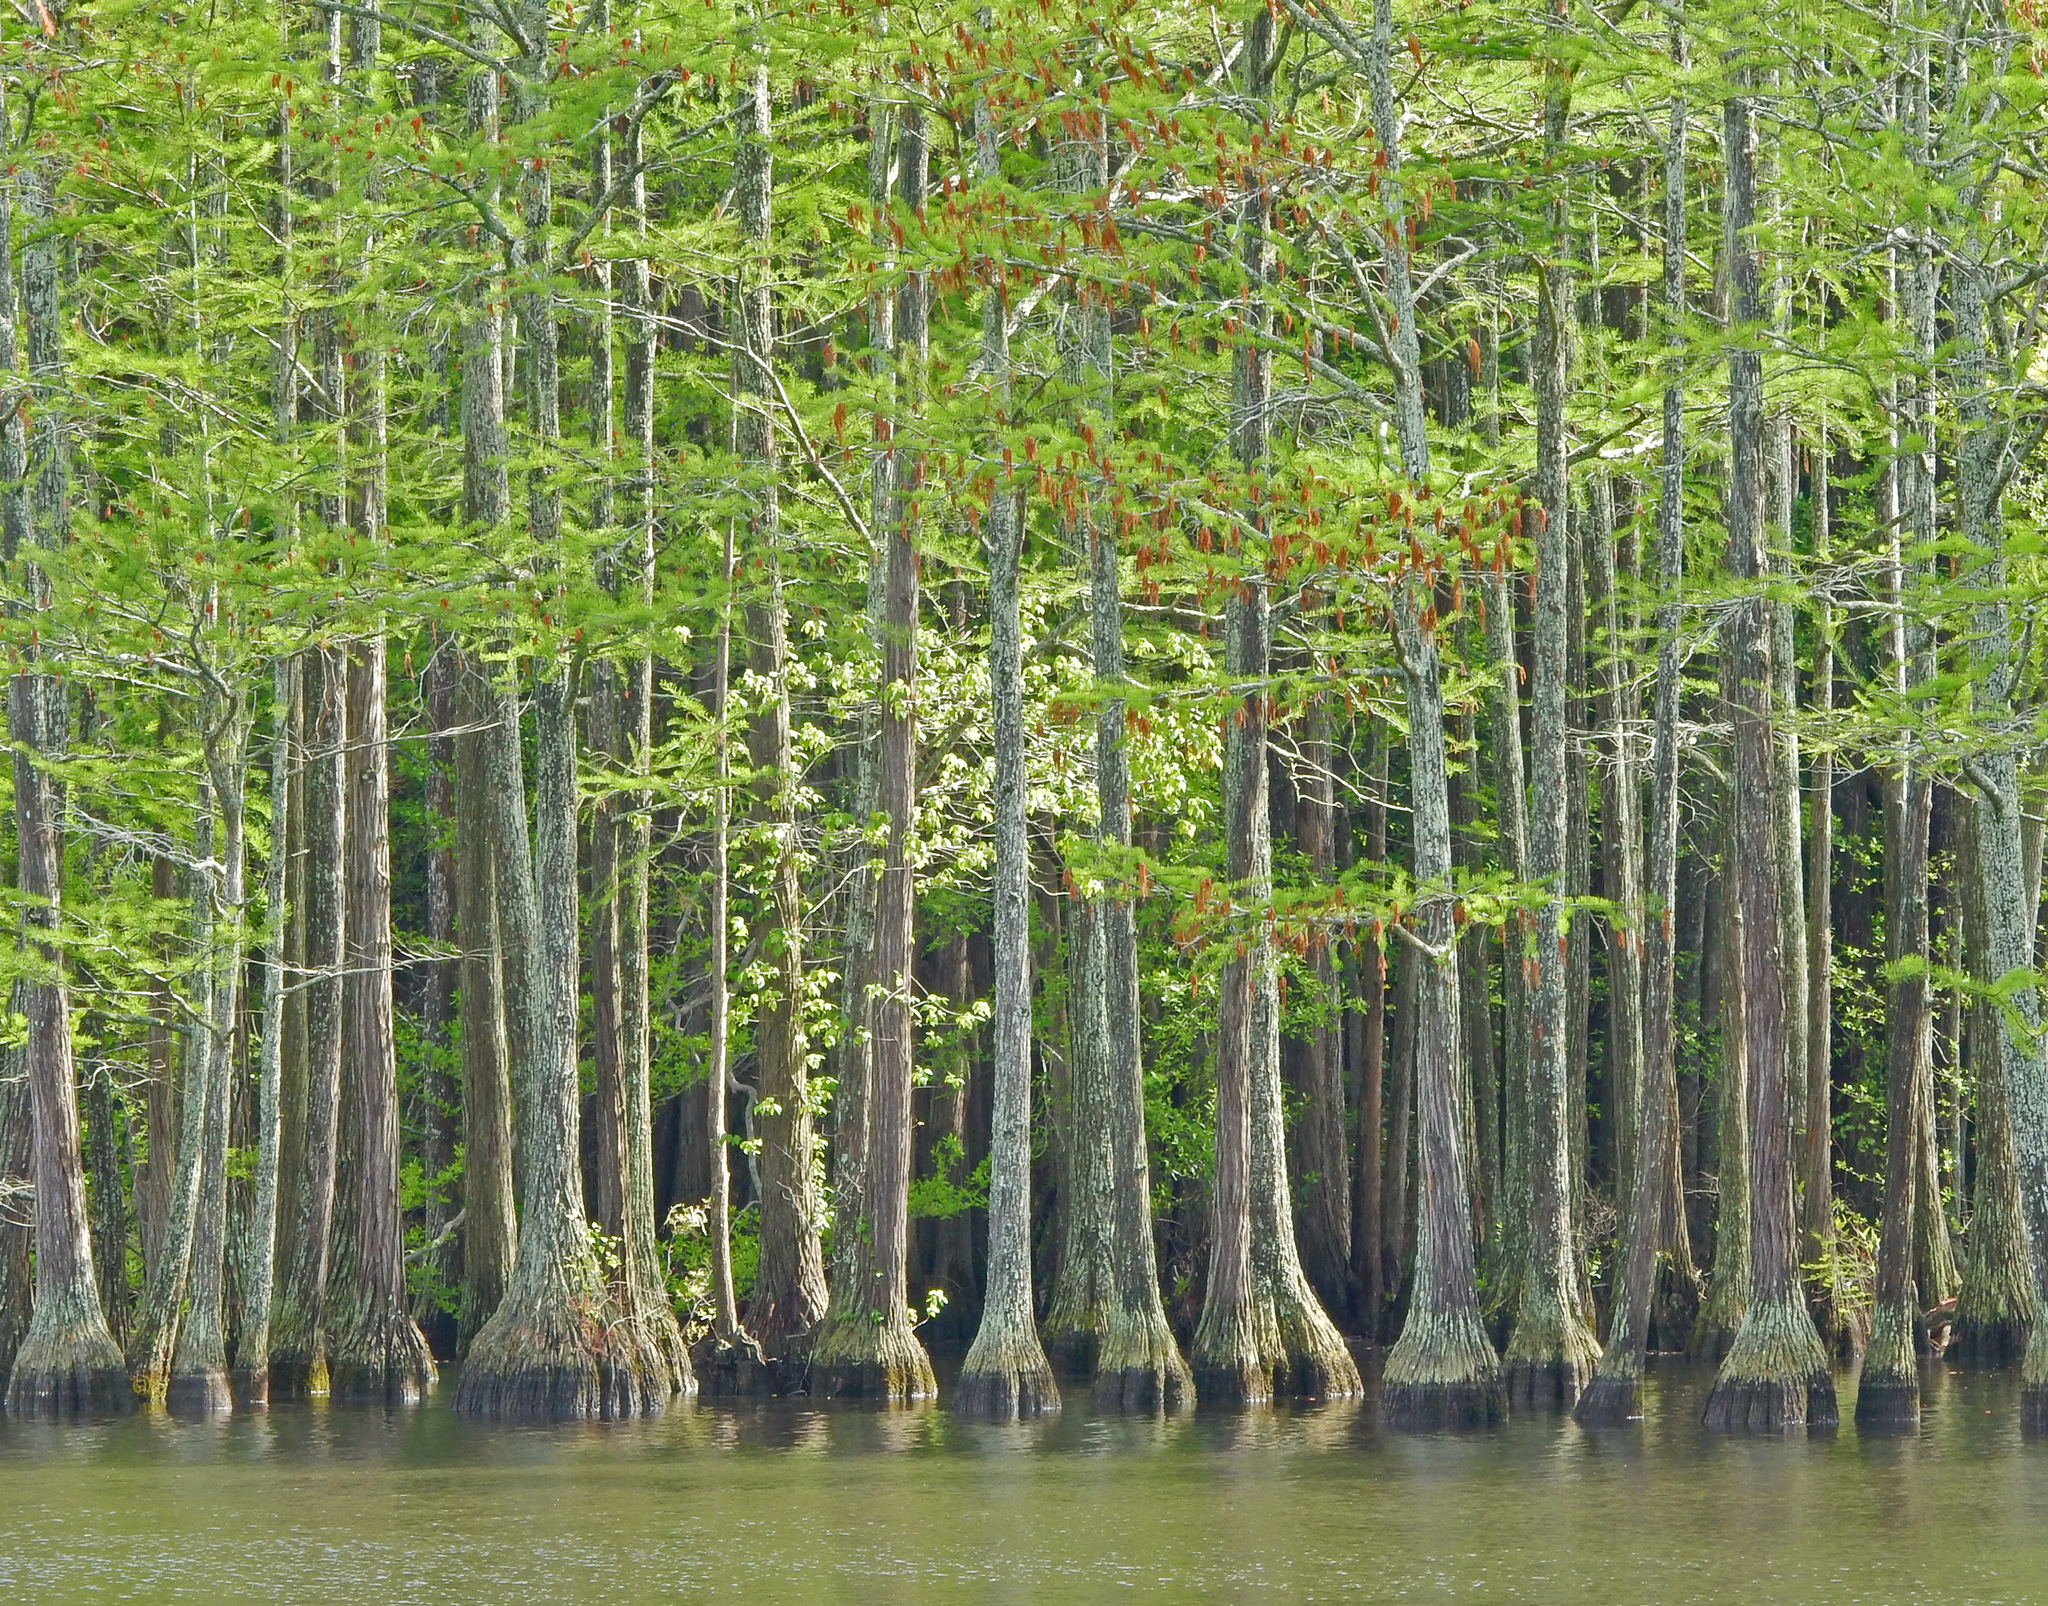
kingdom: Plantae
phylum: Tracheophyta
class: Pinopsida
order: Pinales
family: Cupressaceae
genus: Taxodium
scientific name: Taxodium distichum
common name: Bald cypress
